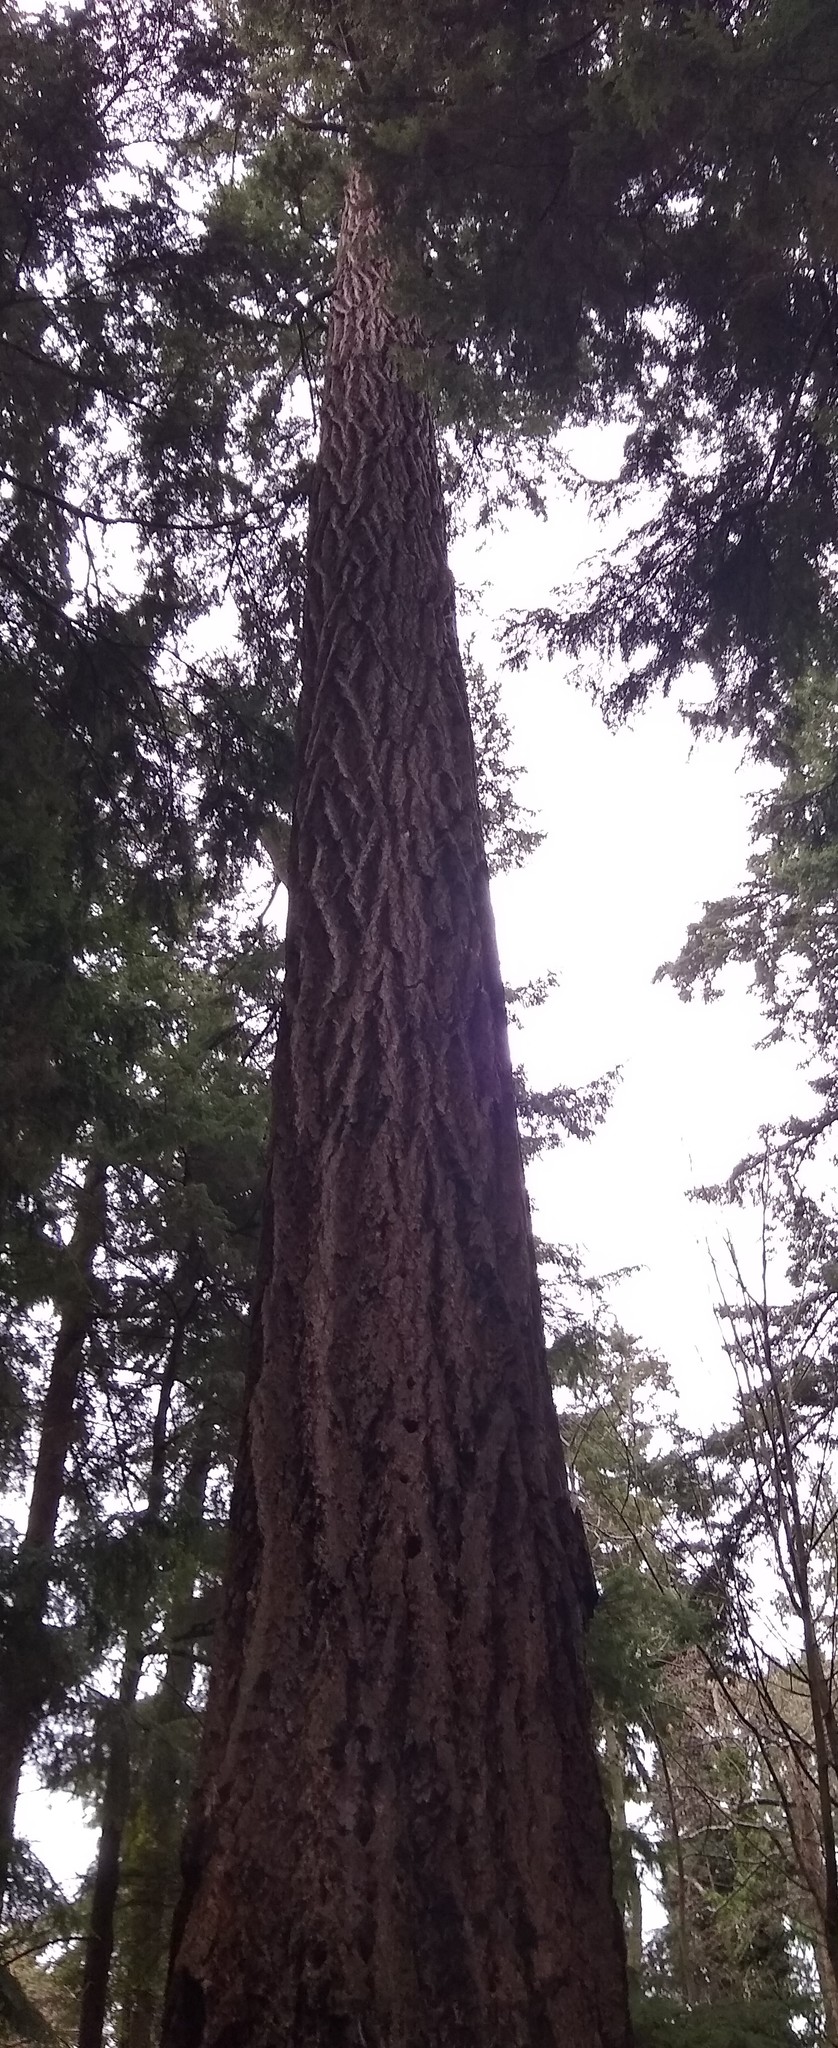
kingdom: Plantae
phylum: Tracheophyta
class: Pinopsida
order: Pinales
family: Pinaceae
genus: Pseudotsuga
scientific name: Pseudotsuga menziesii
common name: Douglas fir
